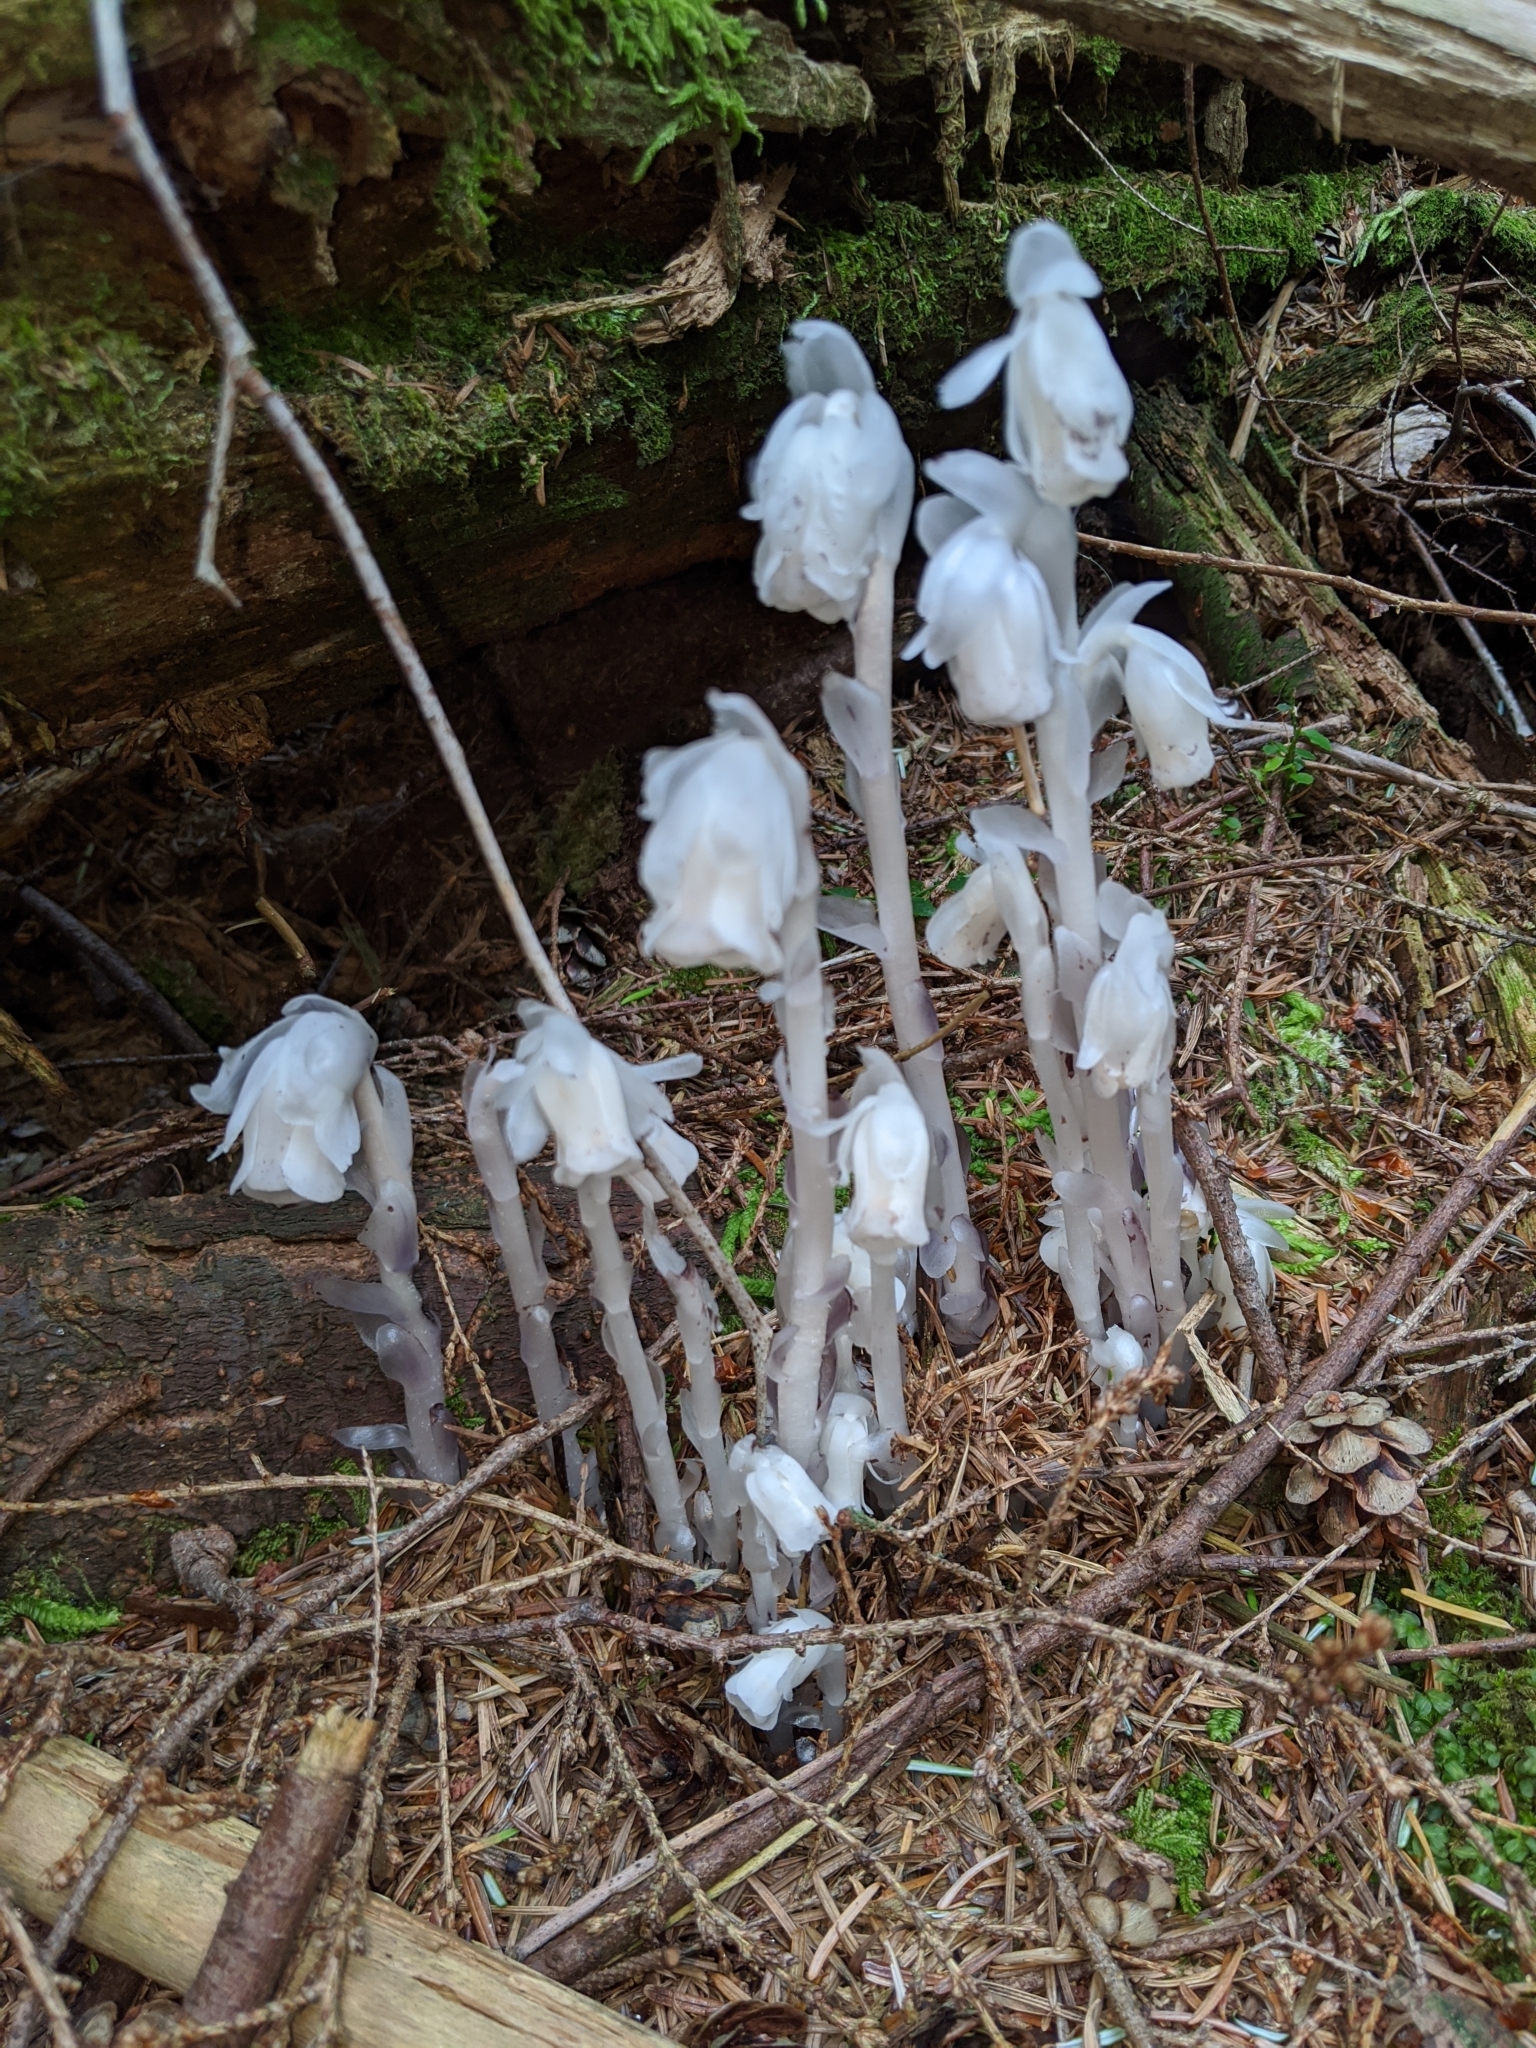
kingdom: Plantae
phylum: Tracheophyta
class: Magnoliopsida
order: Ericales
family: Ericaceae
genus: Monotropa
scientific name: Monotropa uniflora
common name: Convulsion root
